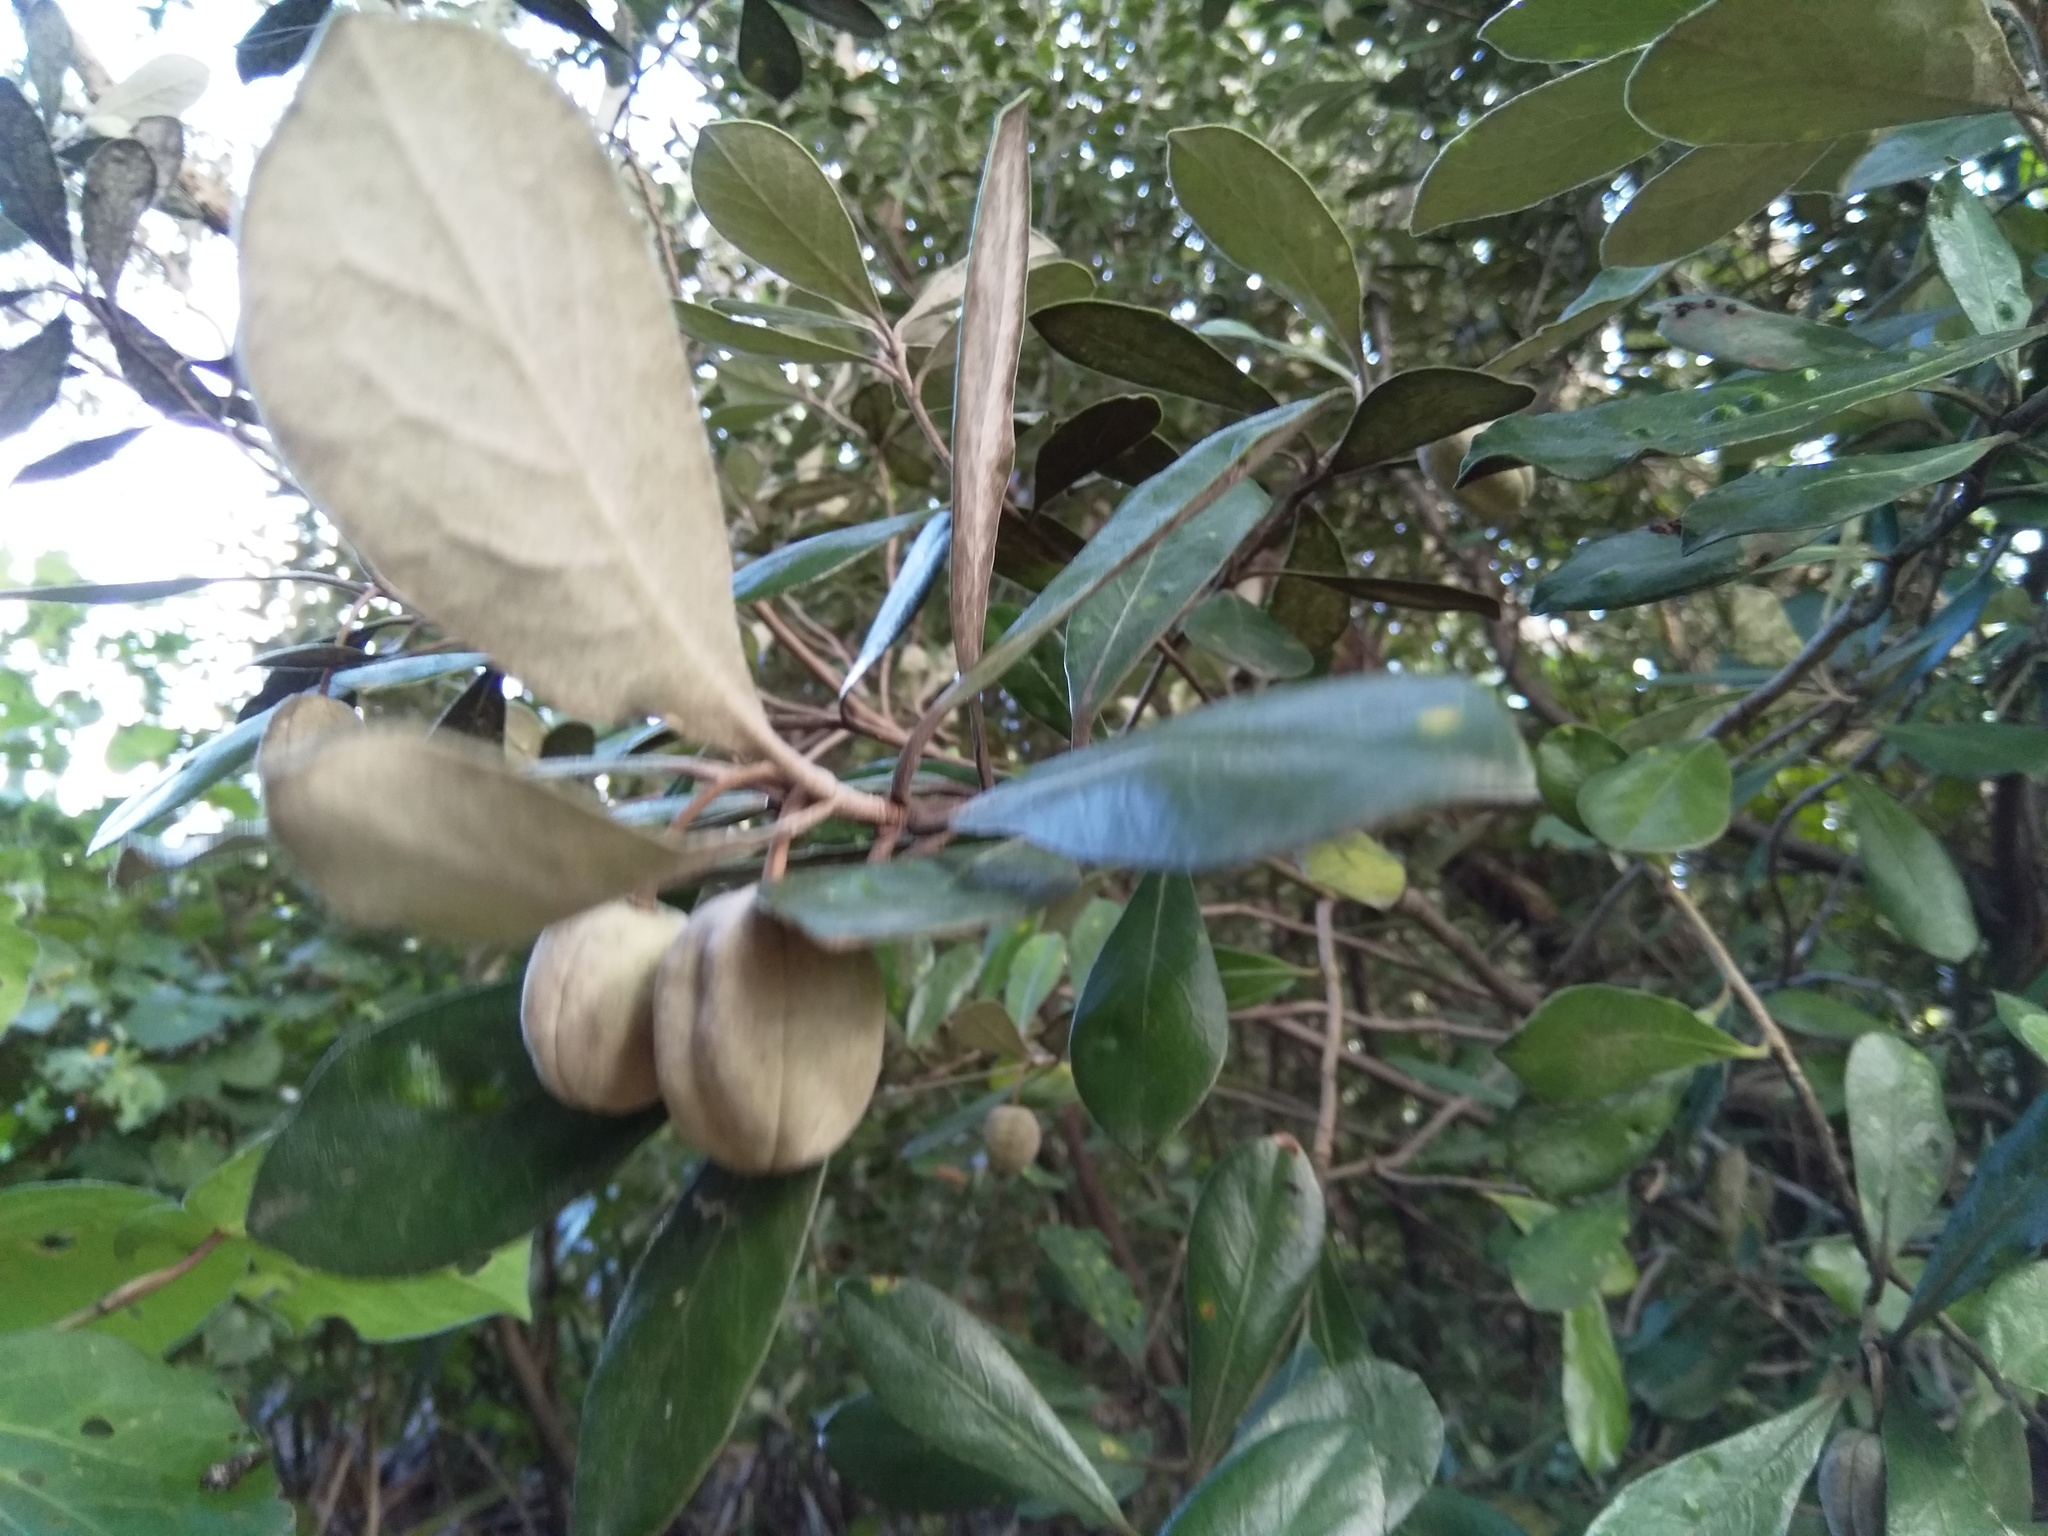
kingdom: Plantae
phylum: Tracheophyta
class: Magnoliopsida
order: Apiales
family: Pittosporaceae
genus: Pittosporum
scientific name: Pittosporum crassifolium
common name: Karo
